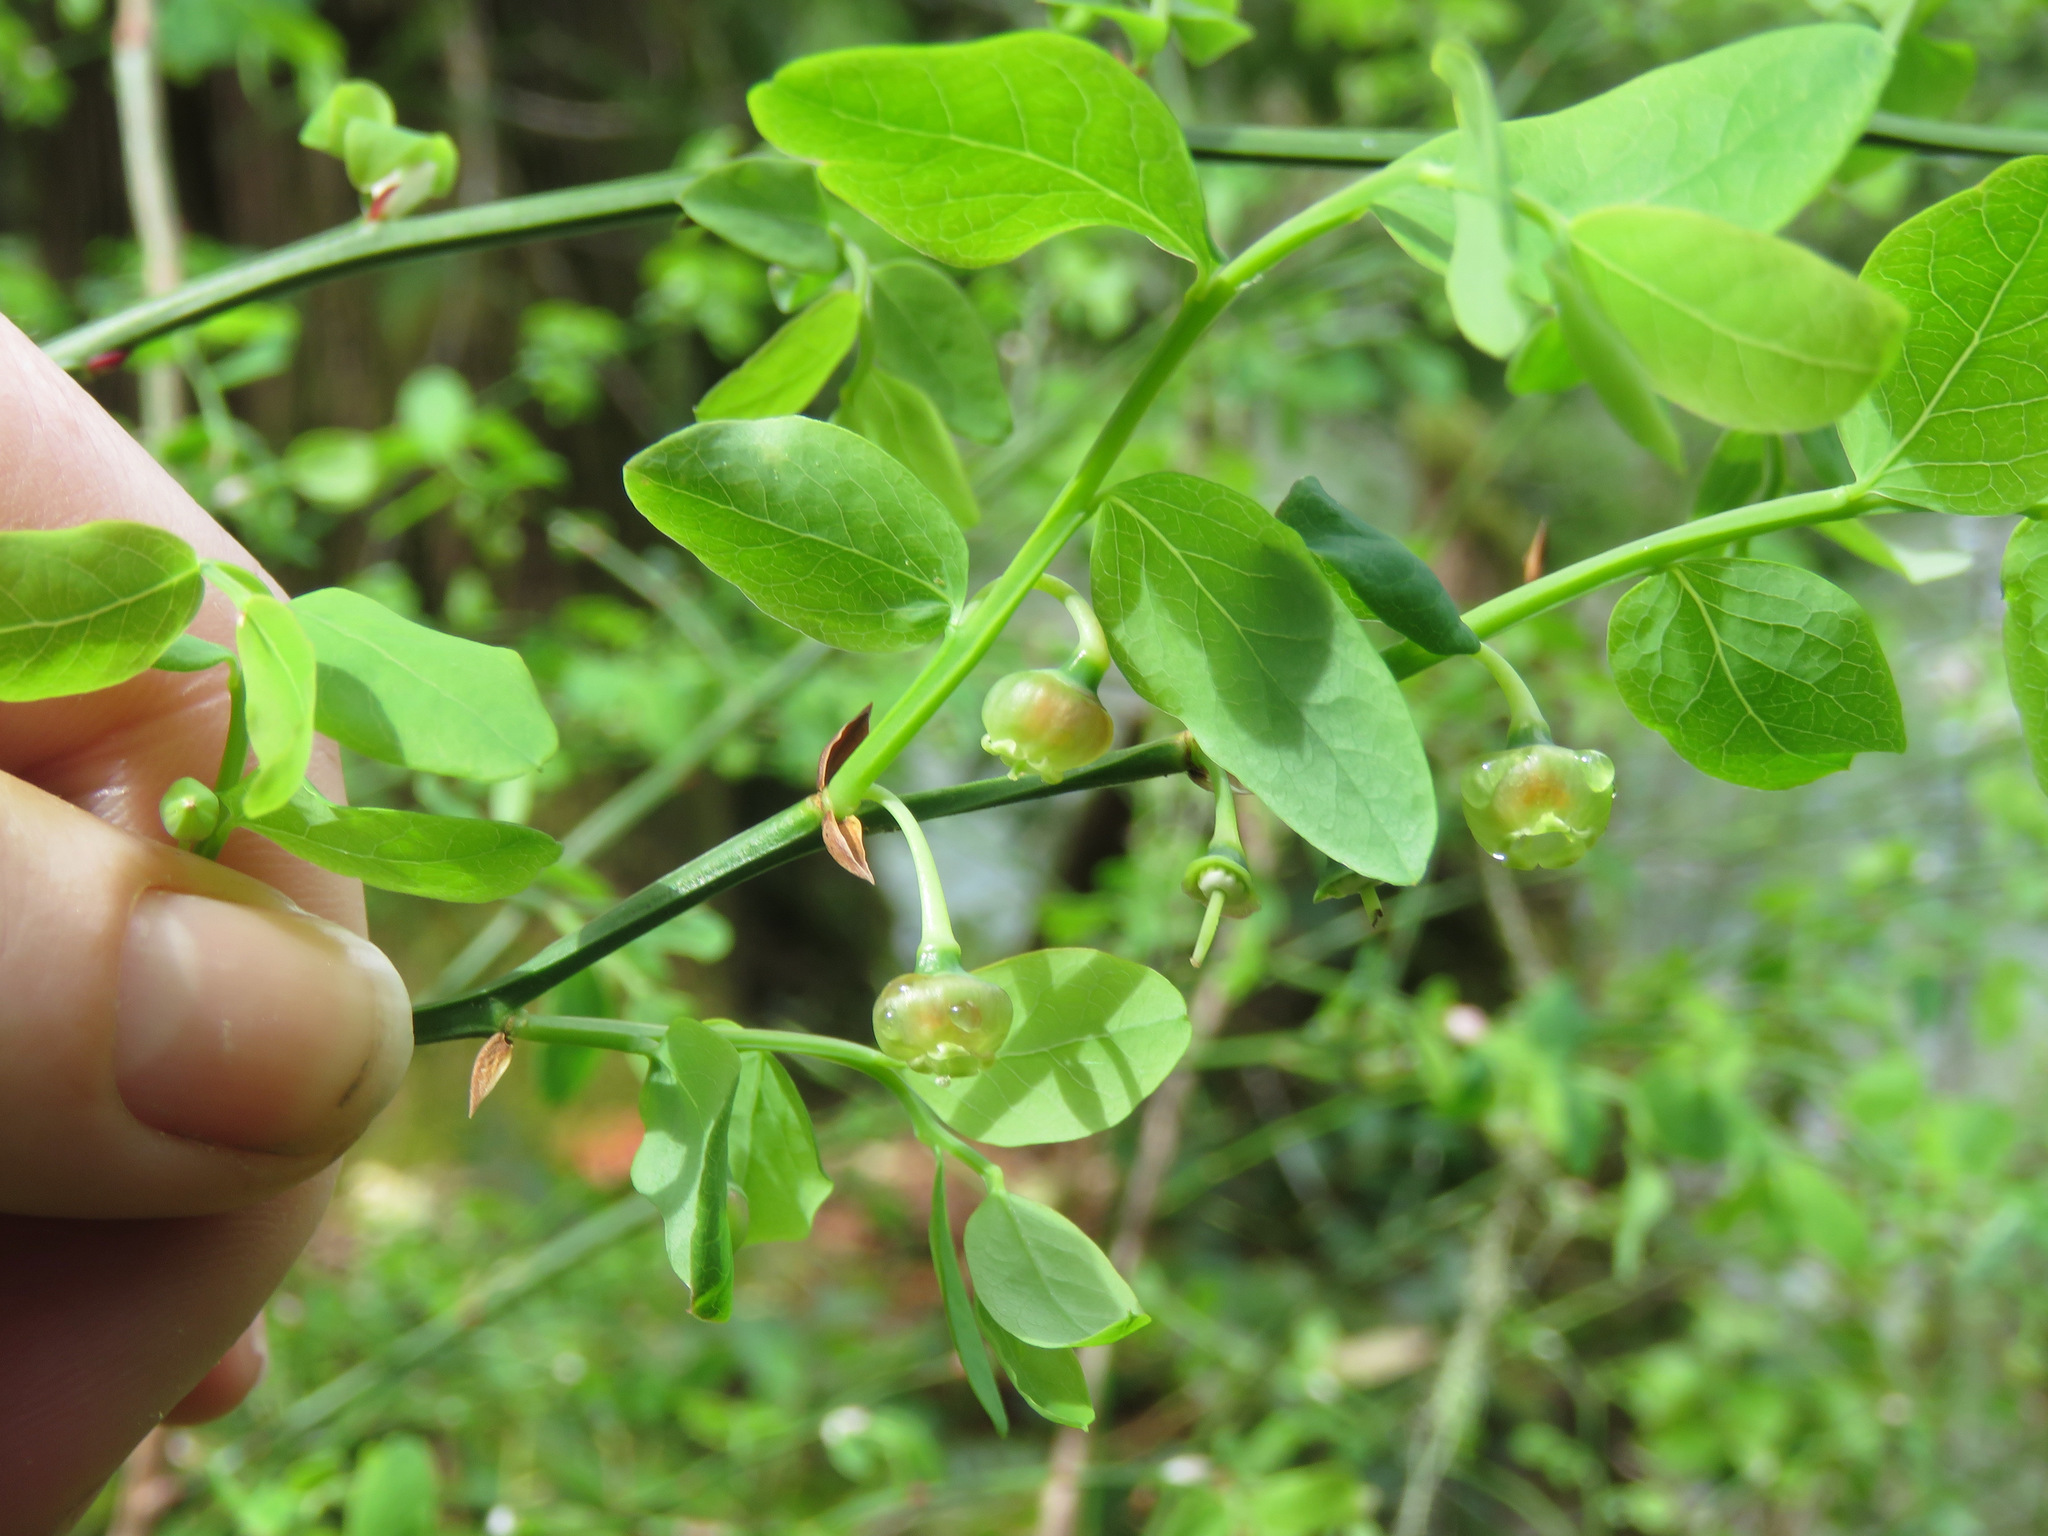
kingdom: Plantae
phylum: Tracheophyta
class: Magnoliopsida
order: Ericales
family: Ericaceae
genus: Vaccinium
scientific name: Vaccinium parvifolium
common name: Red-huckleberry
